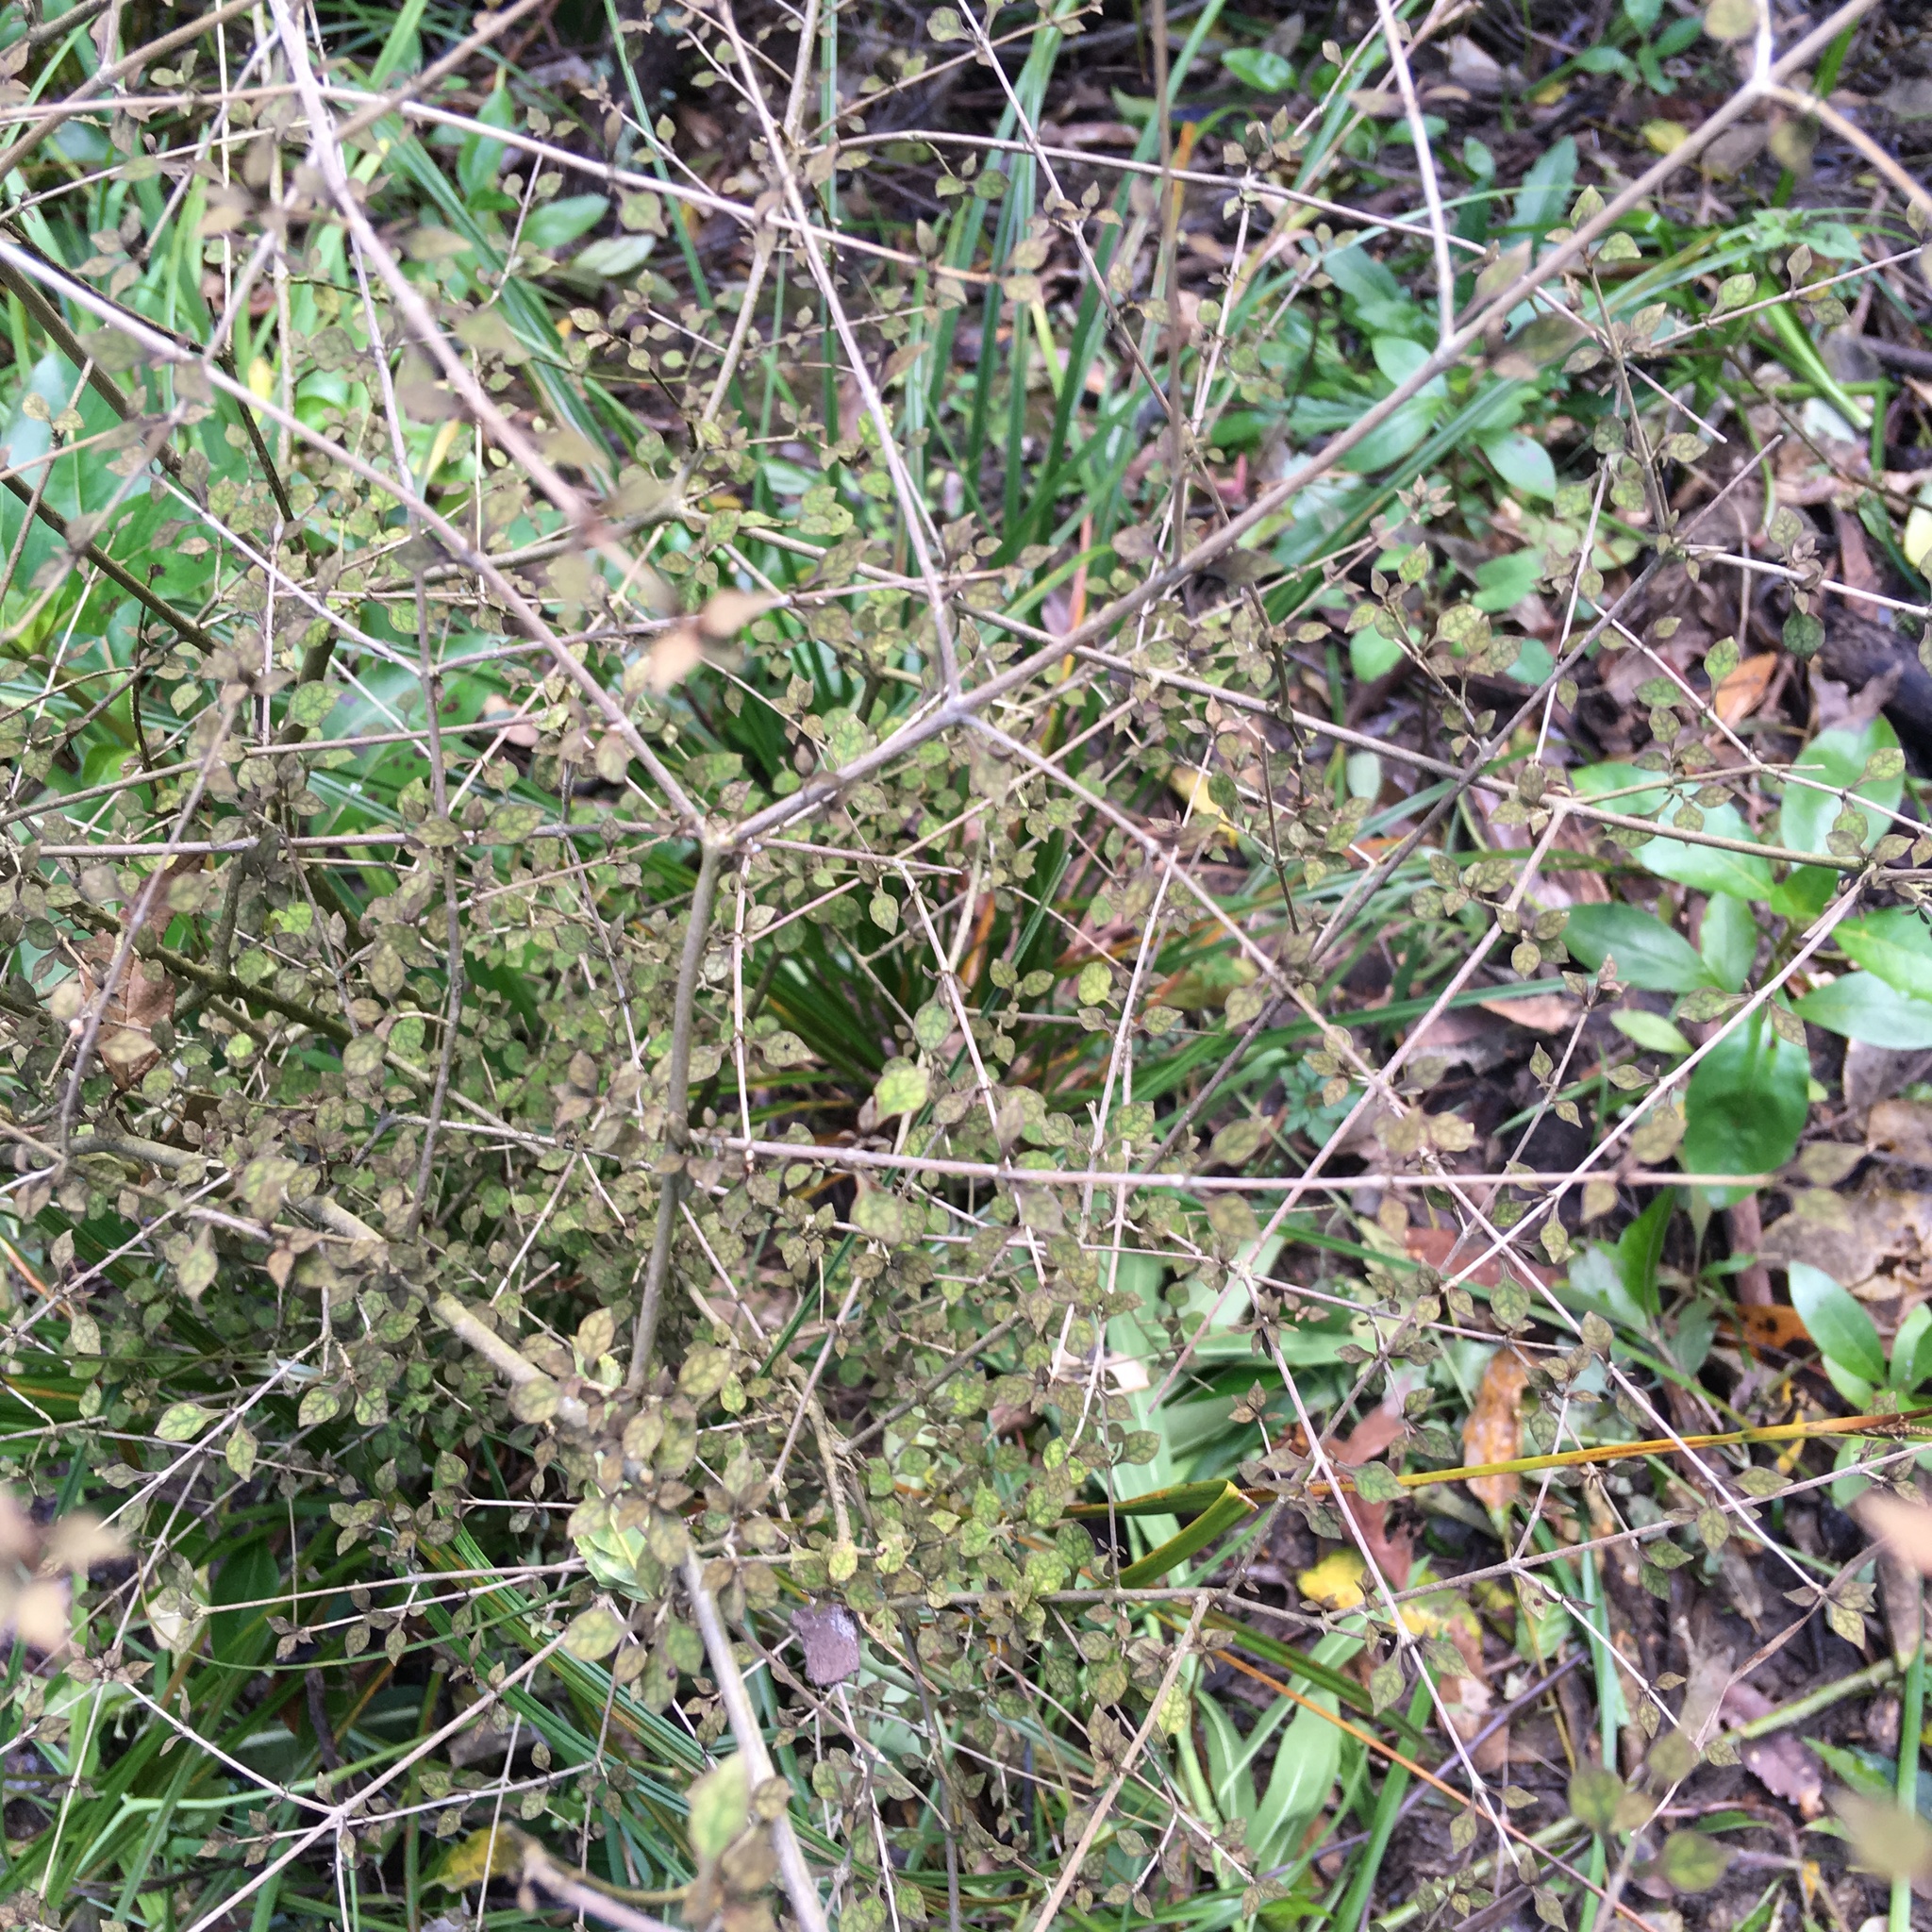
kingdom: Plantae
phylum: Tracheophyta
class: Magnoliopsida
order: Gentianales
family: Rubiaceae
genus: Coprosma
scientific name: Coprosma areolata
